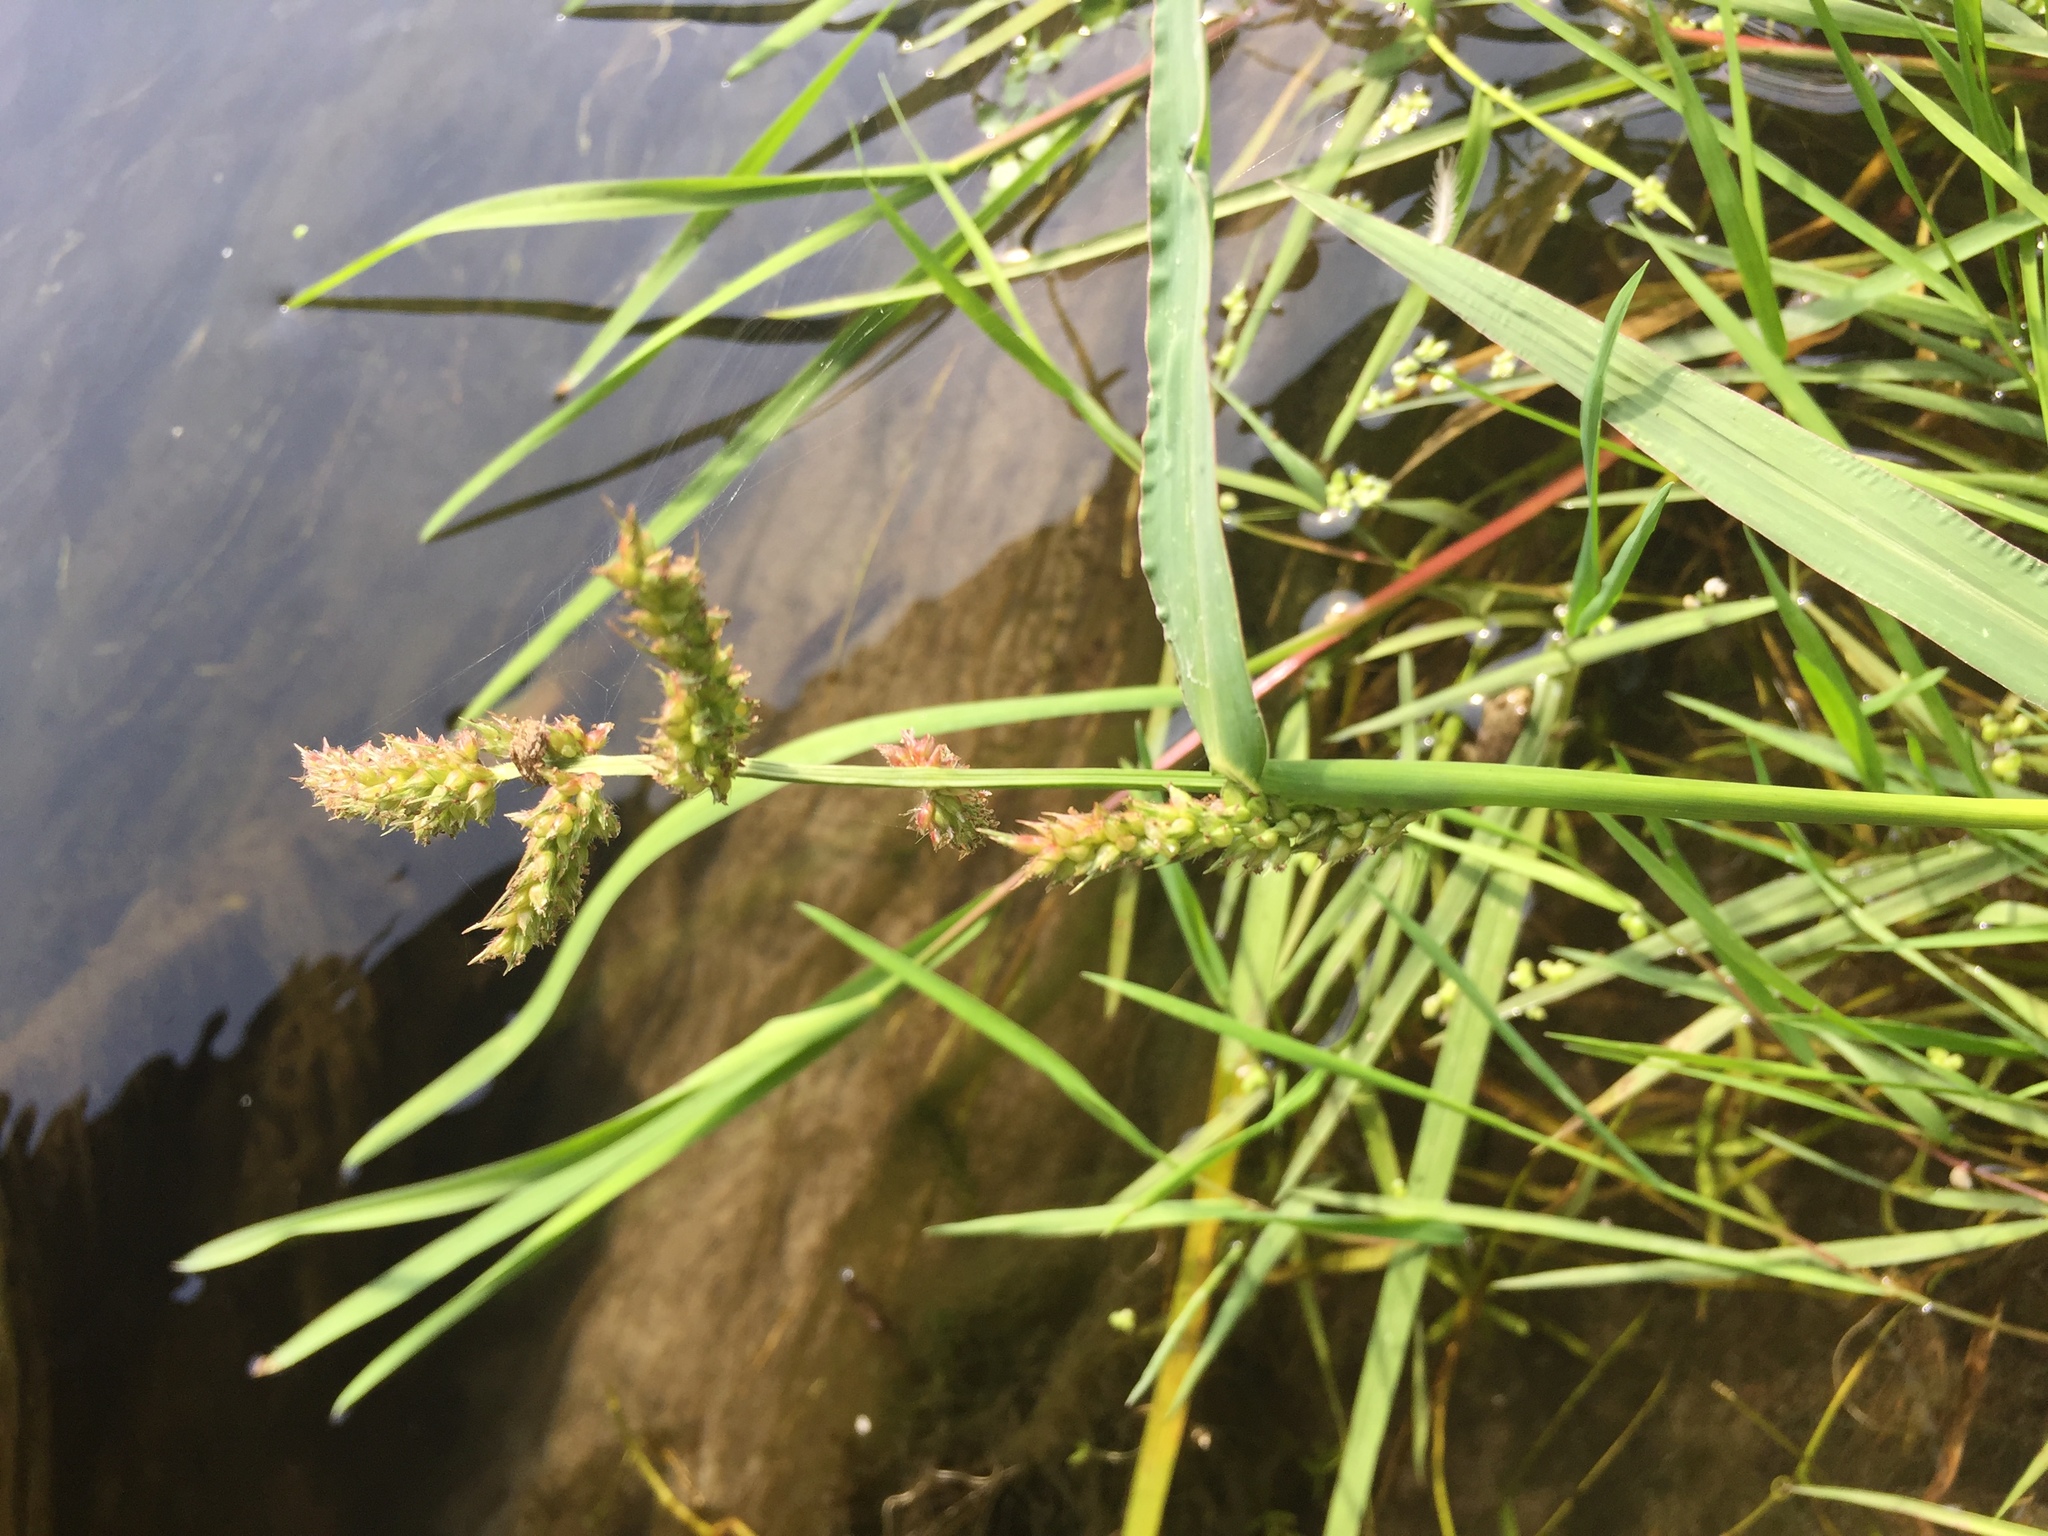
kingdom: Plantae
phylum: Tracheophyta
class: Liliopsida
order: Poales
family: Poaceae
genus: Echinochloa
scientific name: Echinochloa crus-galli
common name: Cockspur
